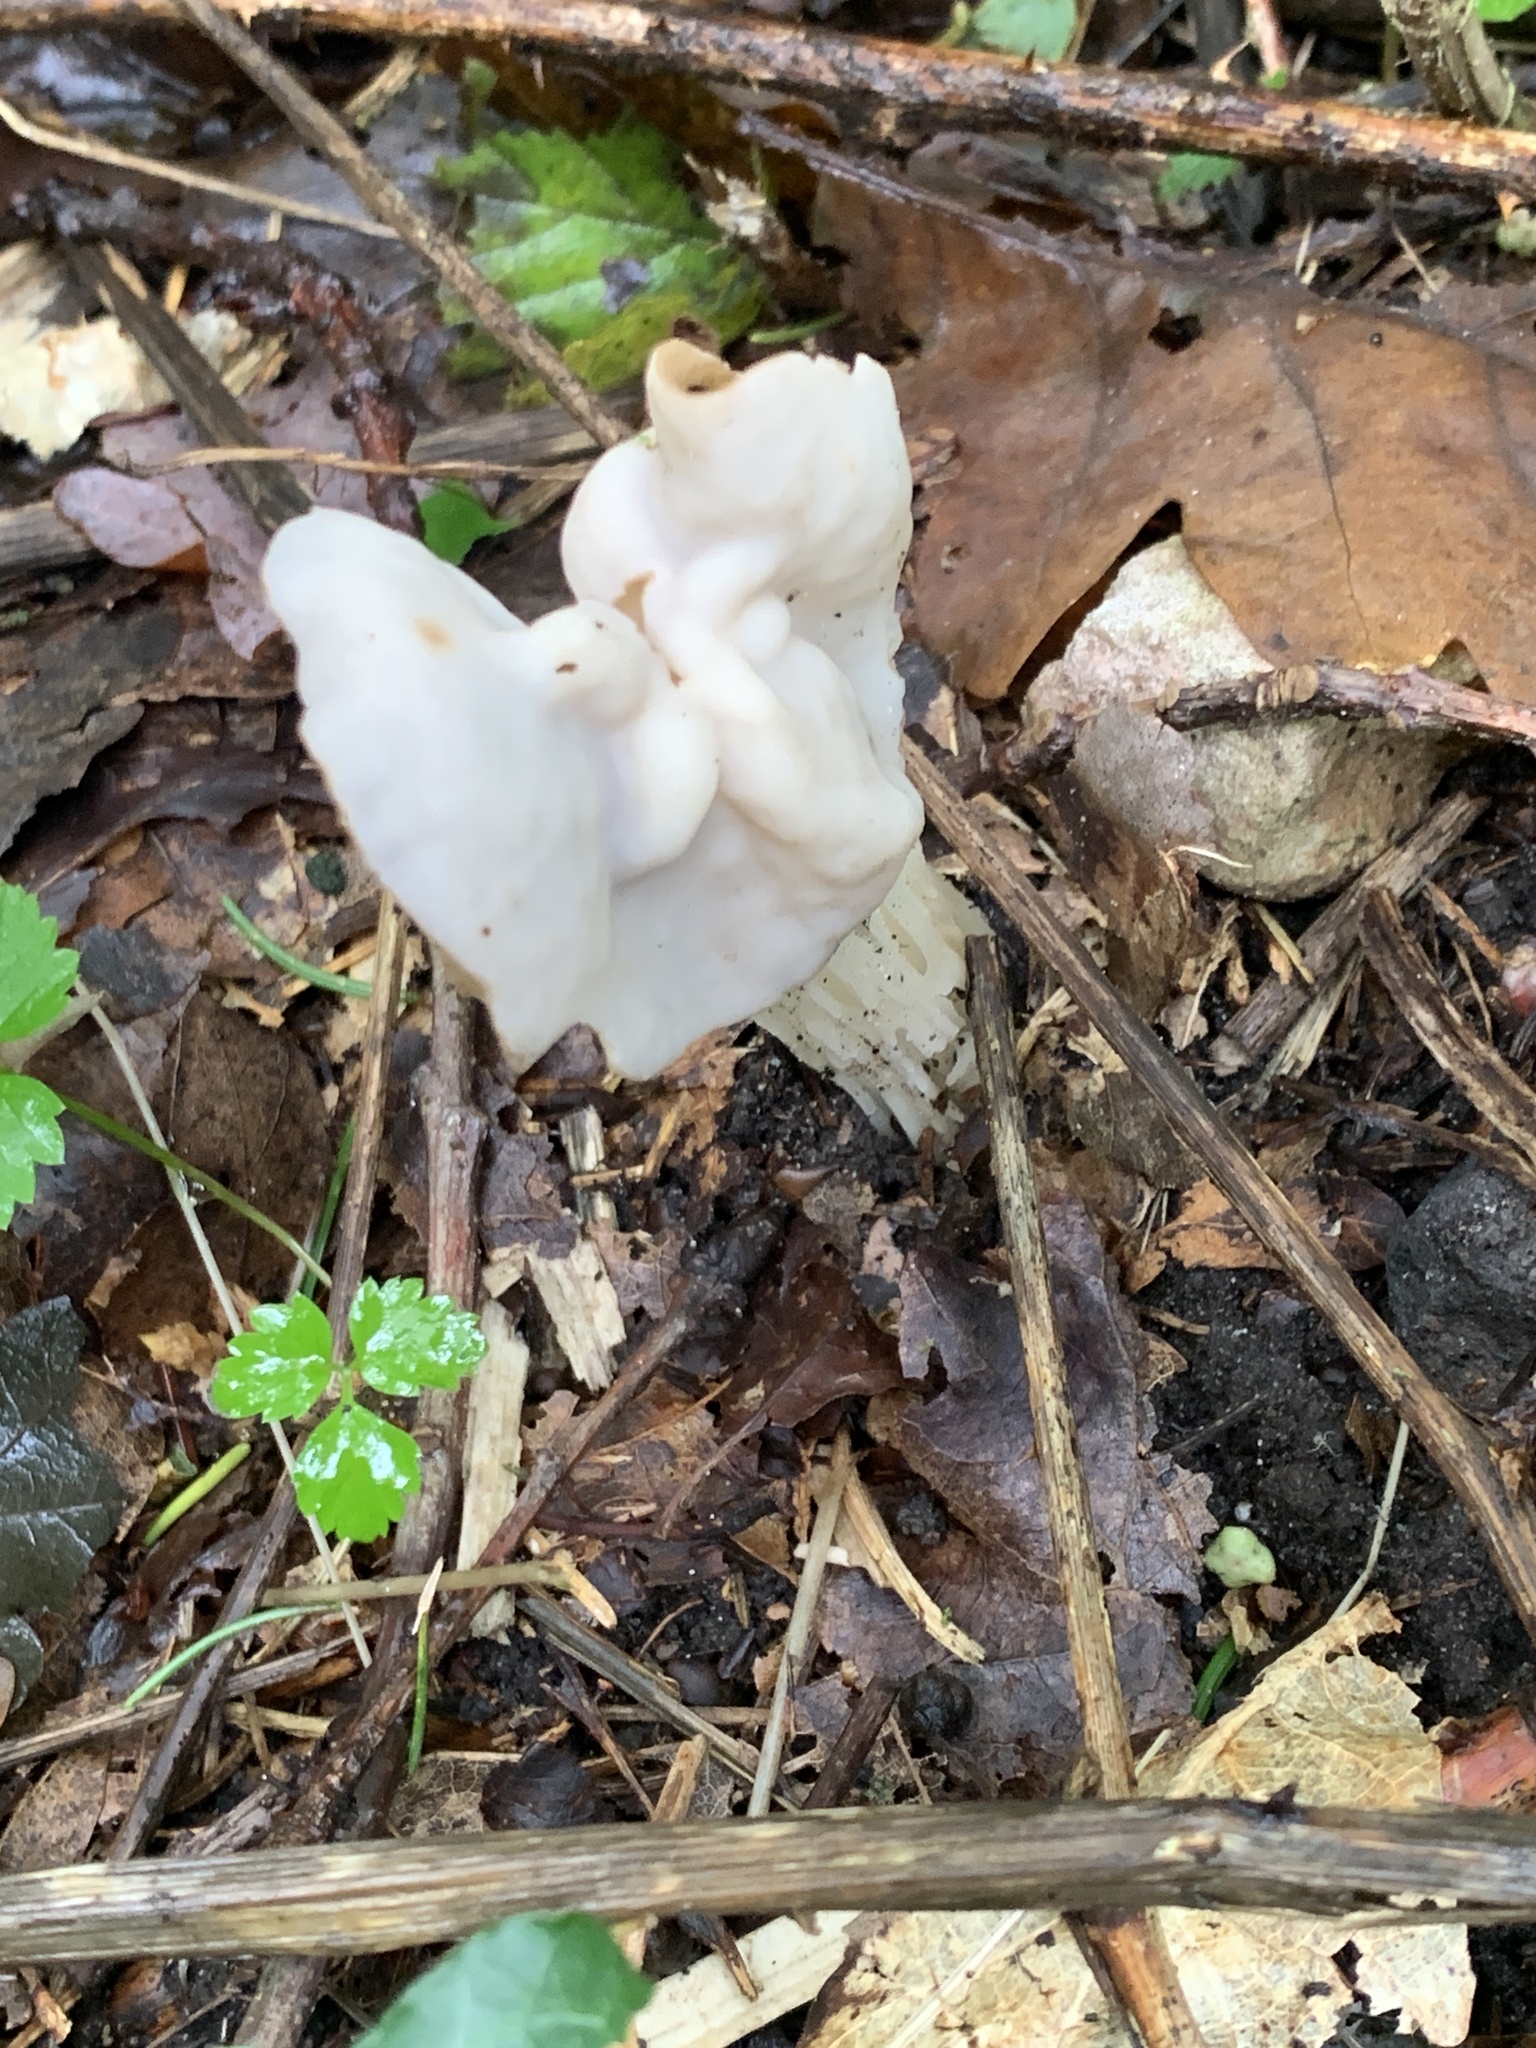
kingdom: Fungi
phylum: Ascomycota
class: Pezizomycetes
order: Pezizales
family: Helvellaceae
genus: Helvella
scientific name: Helvella crispa
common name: White saddle
